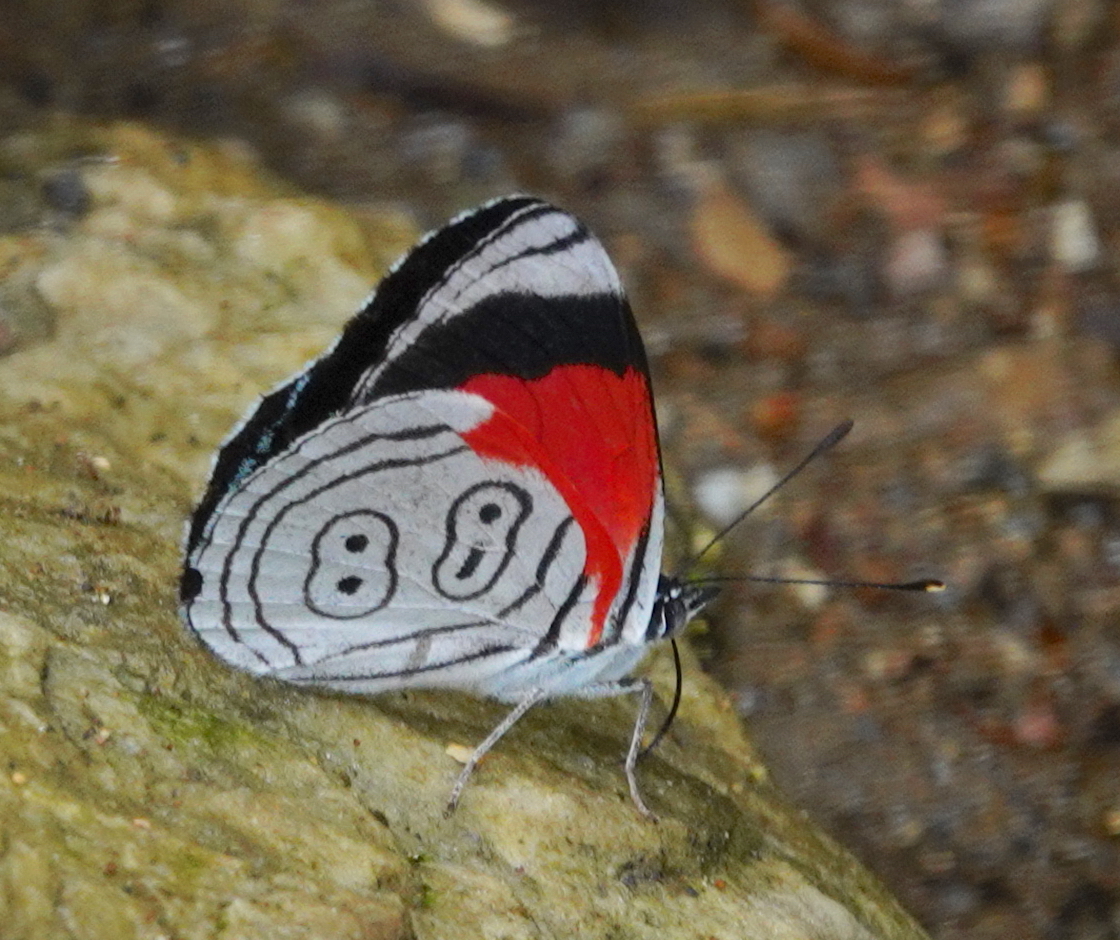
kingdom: Animalia
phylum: Arthropoda
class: Insecta
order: Lepidoptera
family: Nymphalidae
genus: Diaethria
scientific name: Diaethria anna
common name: Anna’s eighty-eight
